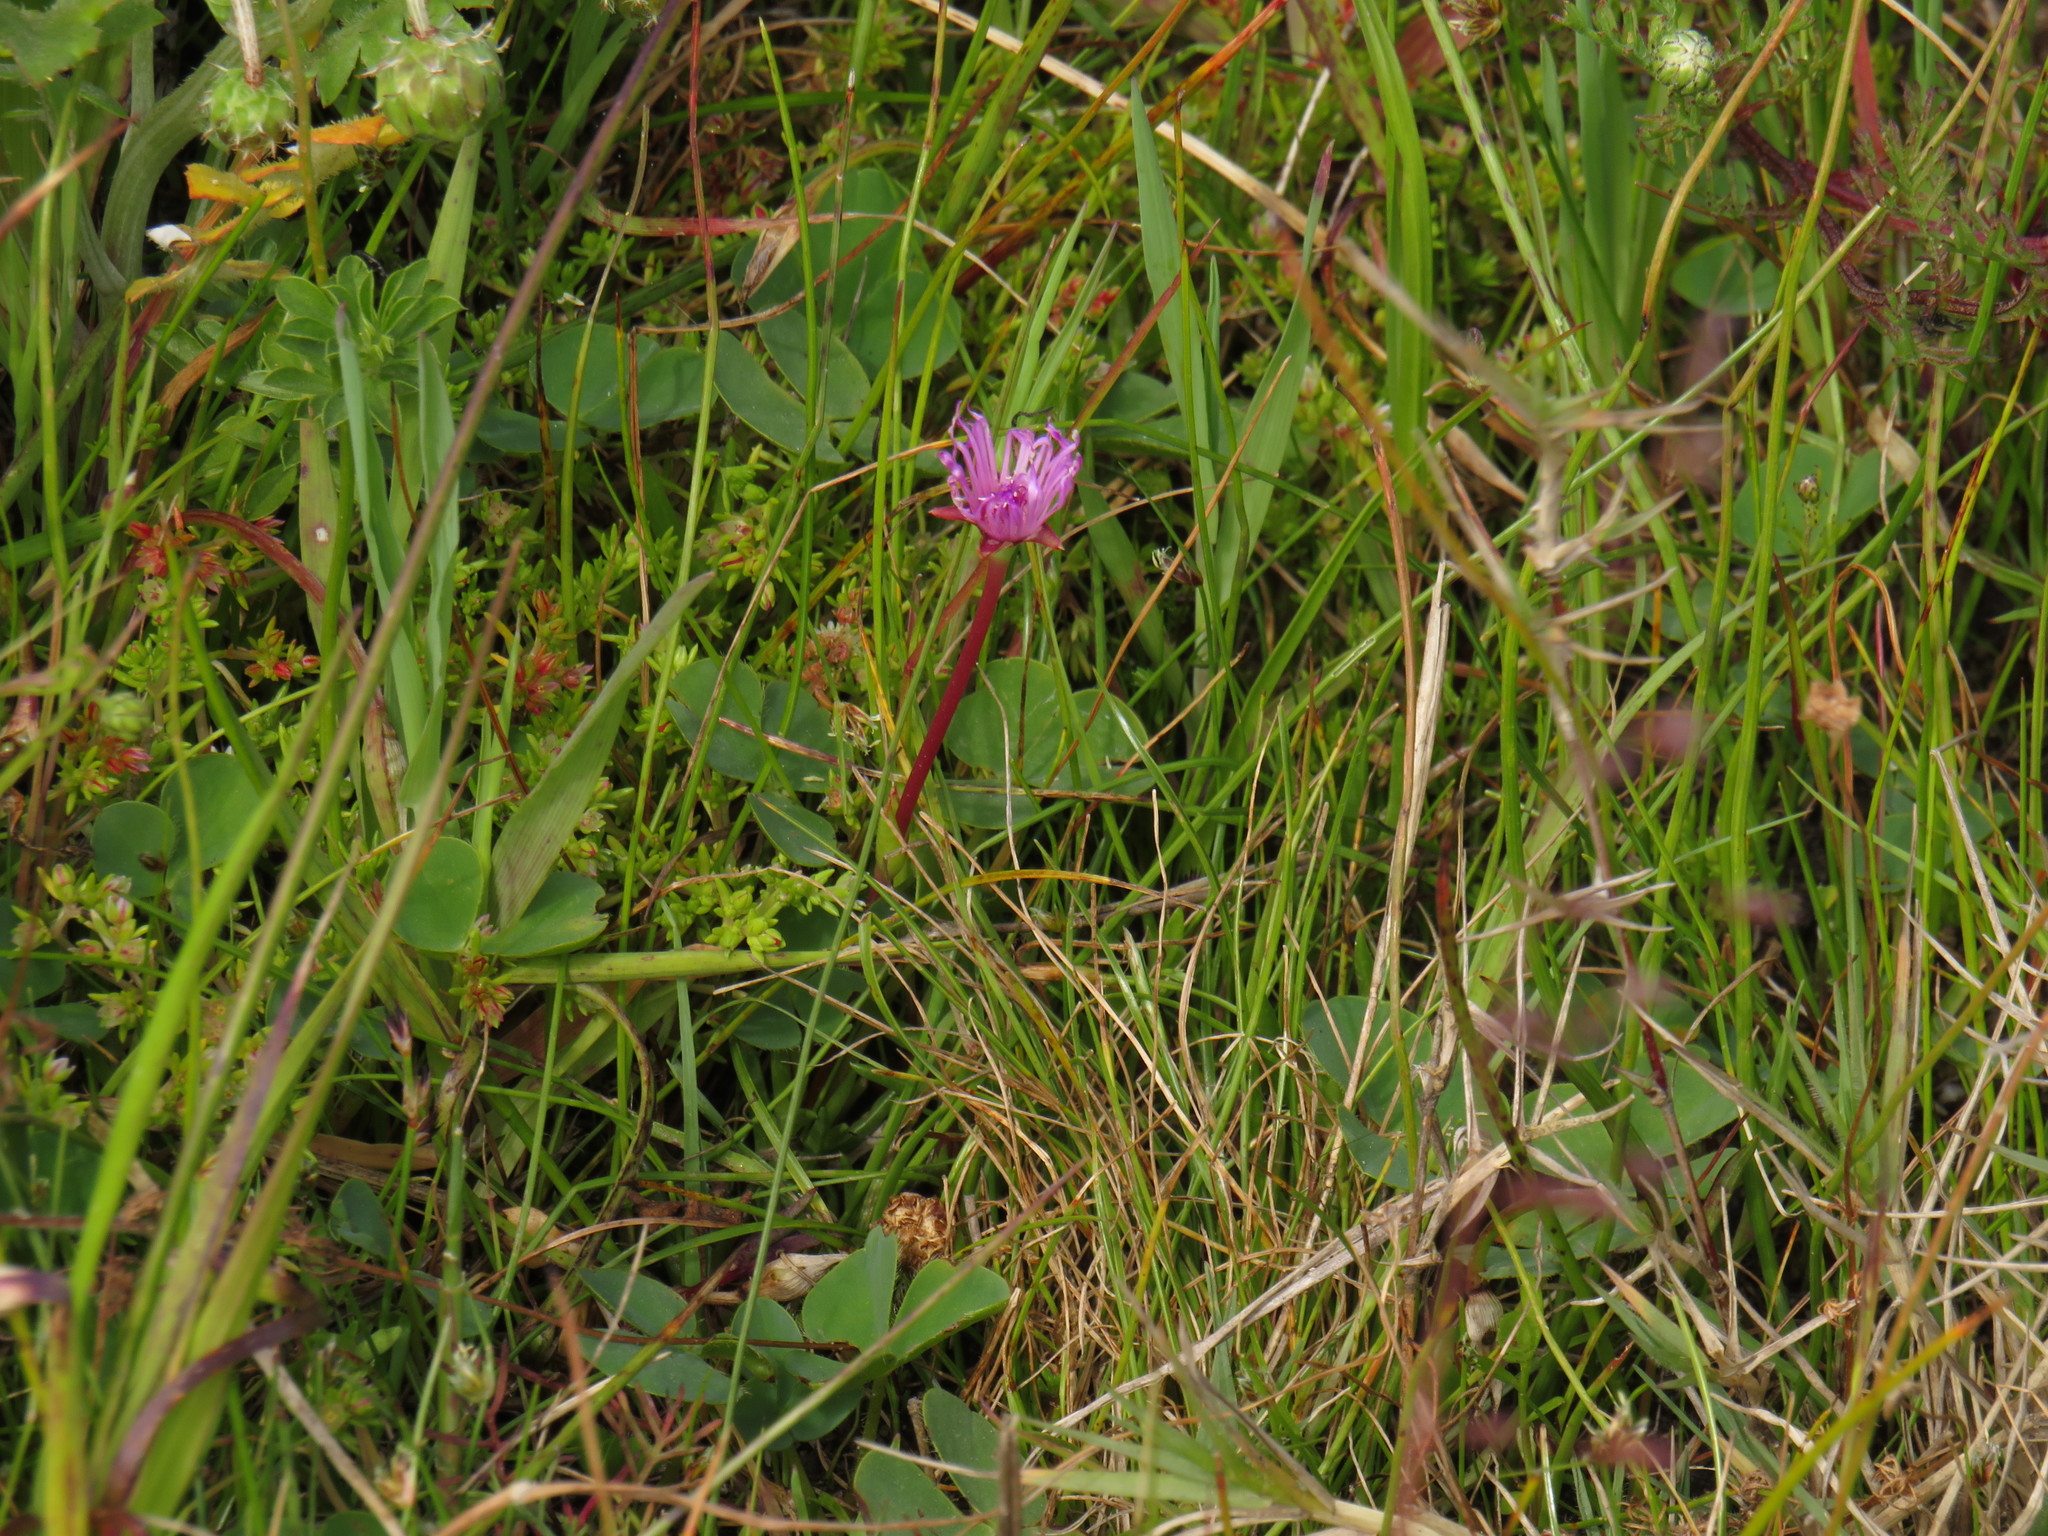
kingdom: Plantae
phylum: Tracheophyta
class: Magnoliopsida
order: Caryophyllales
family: Aizoaceae
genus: Lampranthus
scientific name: Lampranthus filicaulis
